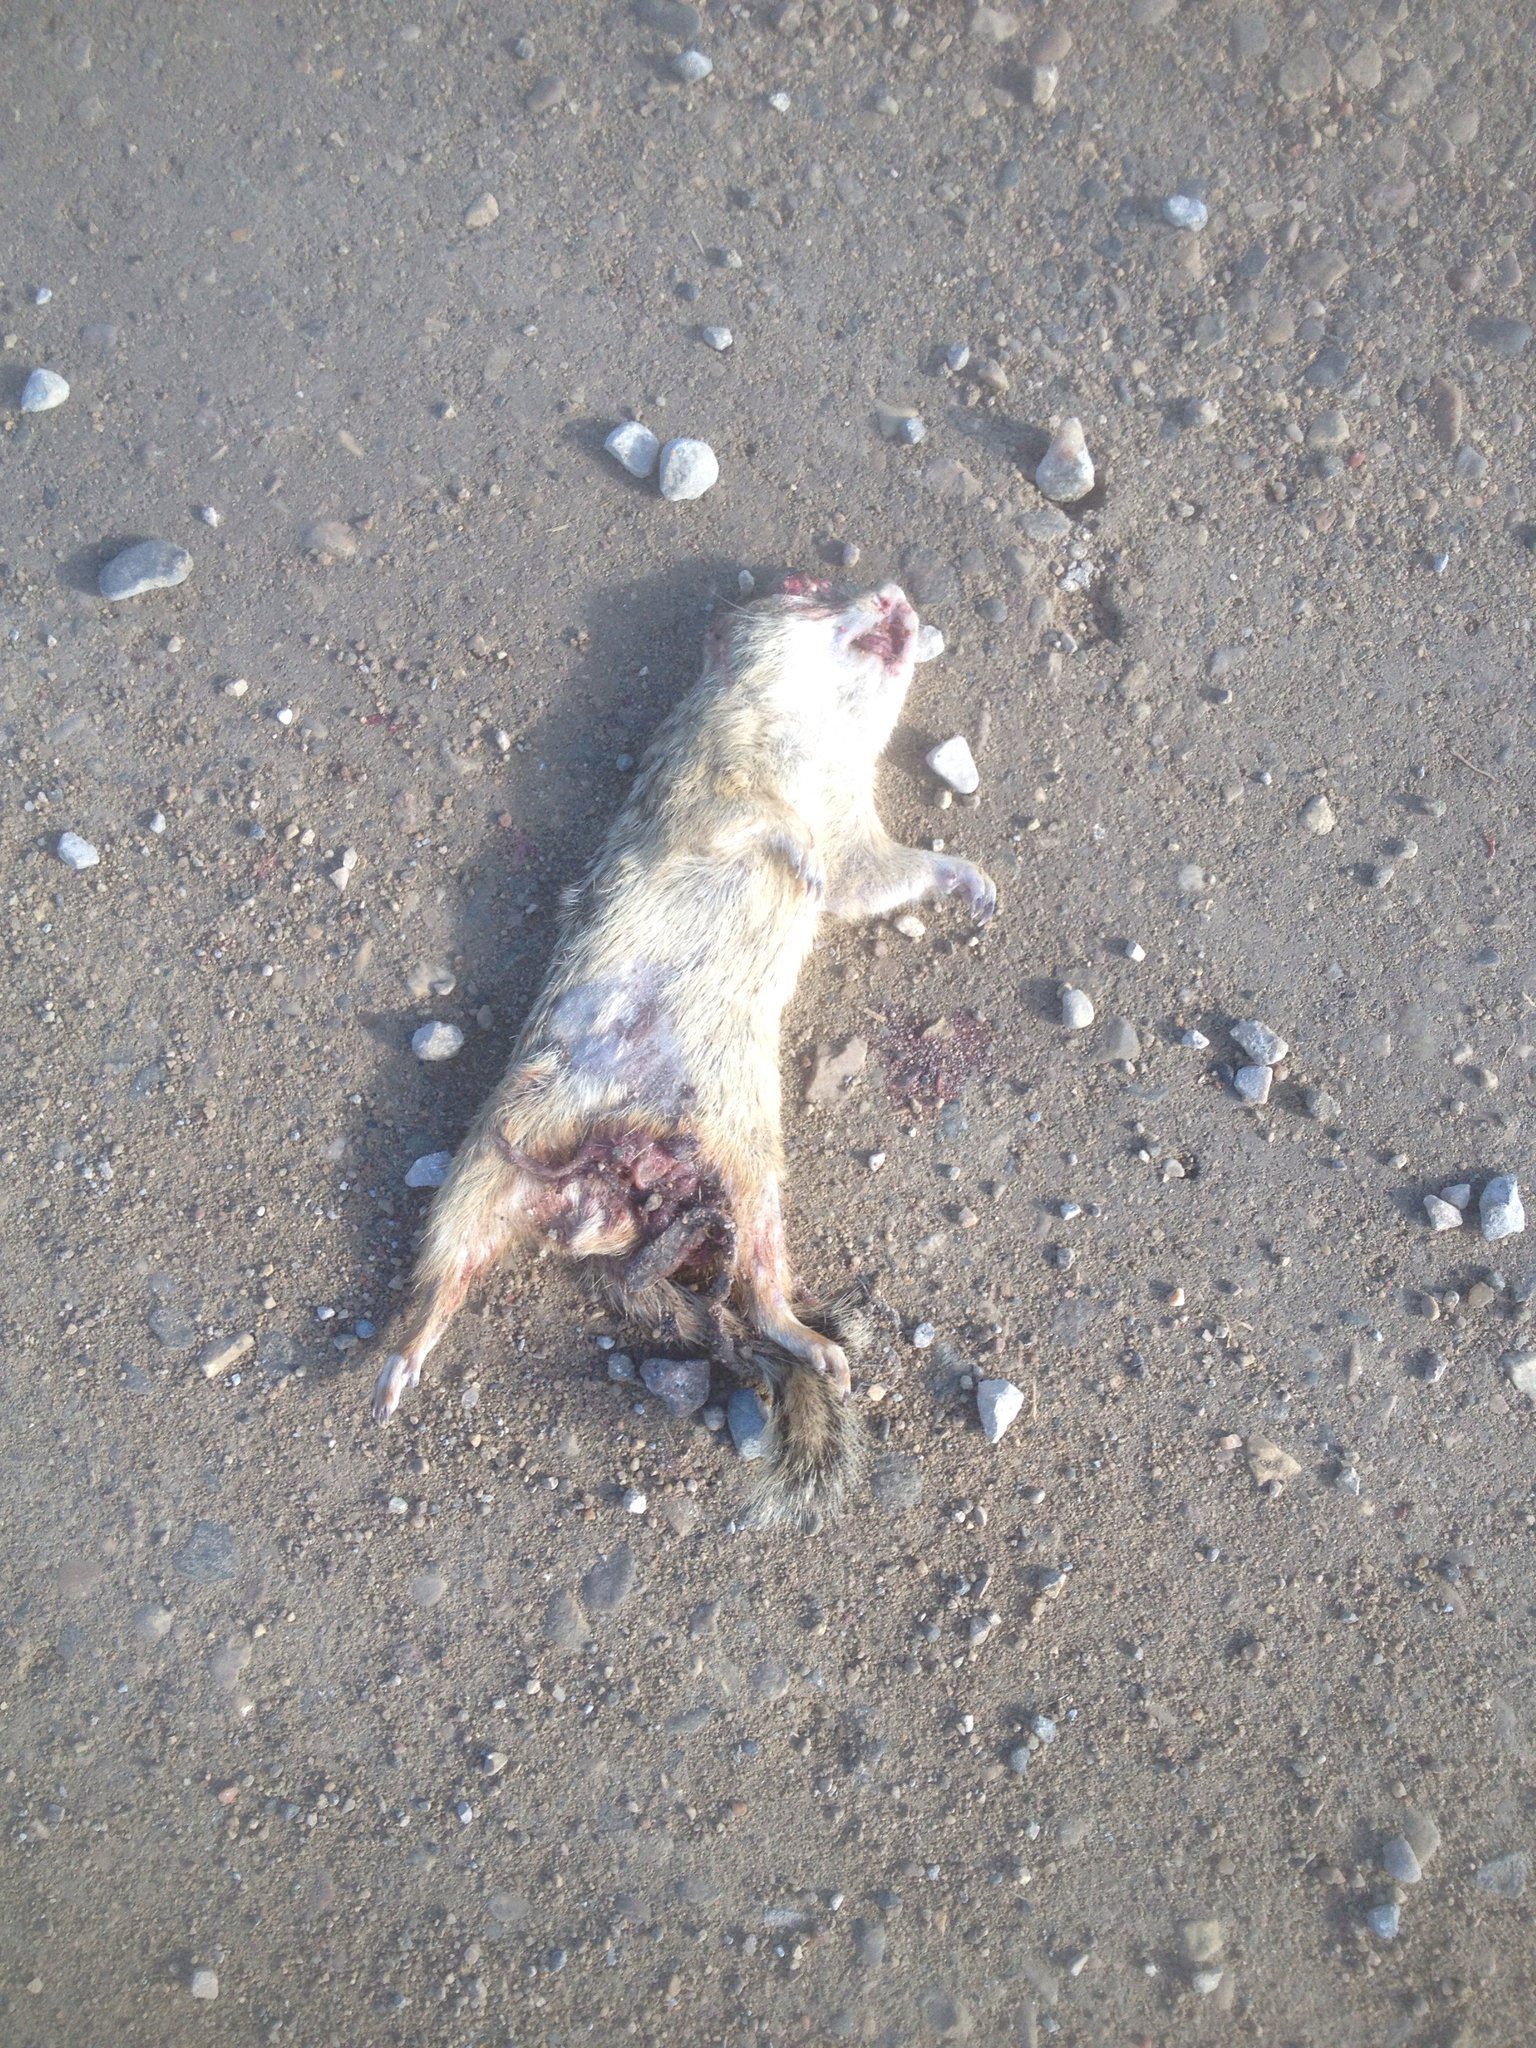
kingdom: Animalia
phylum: Chordata
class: Mammalia
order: Rodentia
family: Sciuridae
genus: Ictidomys
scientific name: Ictidomys tridecemlineatus
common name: Thirteen-lined ground squirrel
